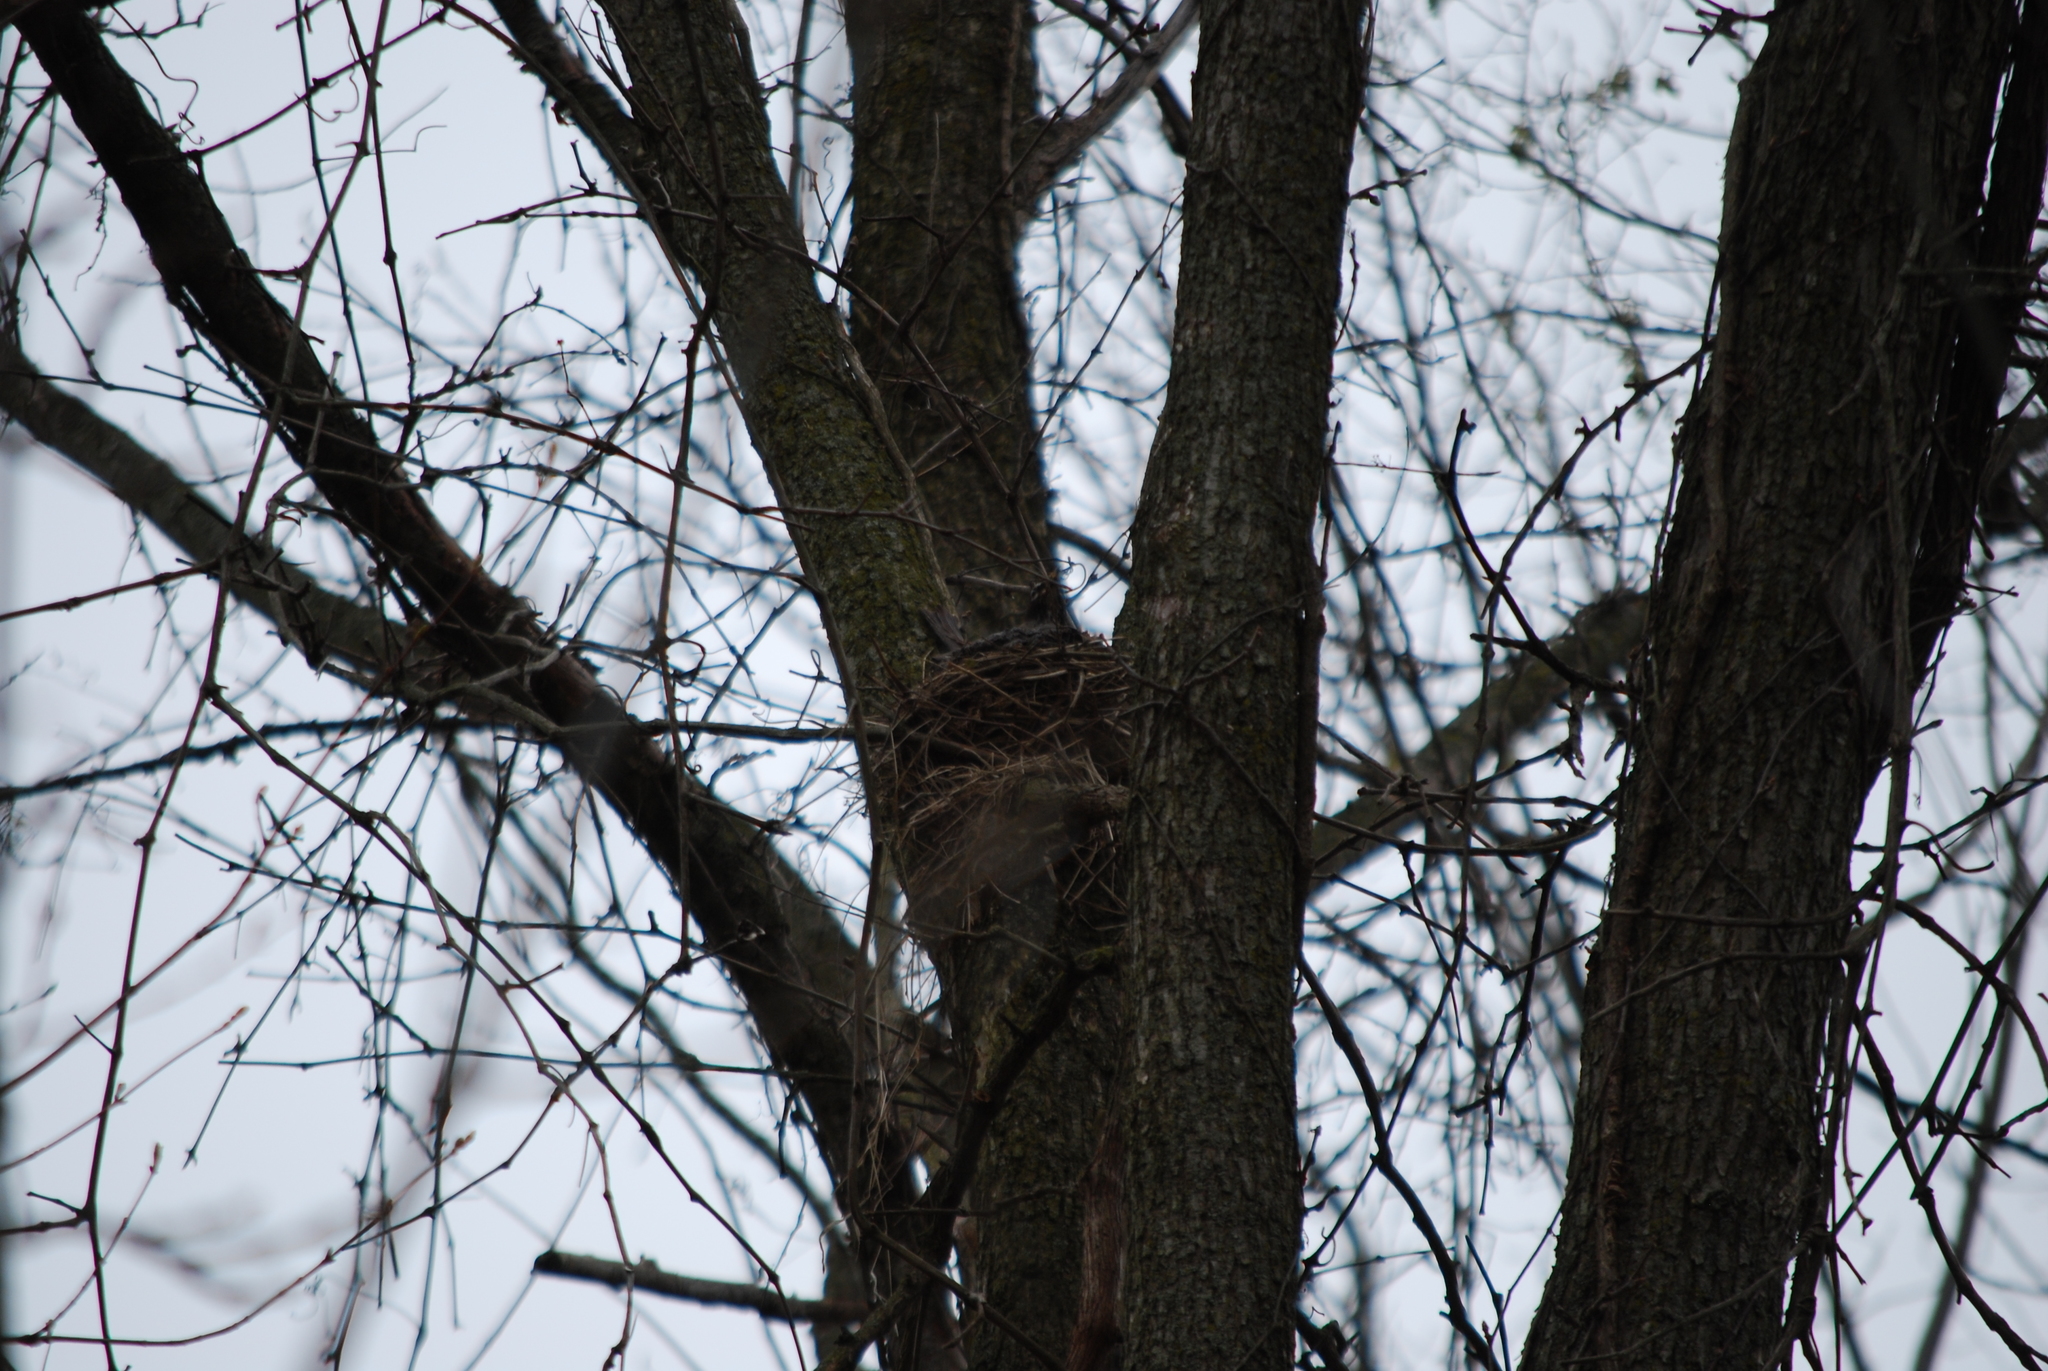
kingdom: Animalia
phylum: Chordata
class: Aves
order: Passeriformes
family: Turdidae
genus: Turdus
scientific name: Turdus migratorius
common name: American robin
